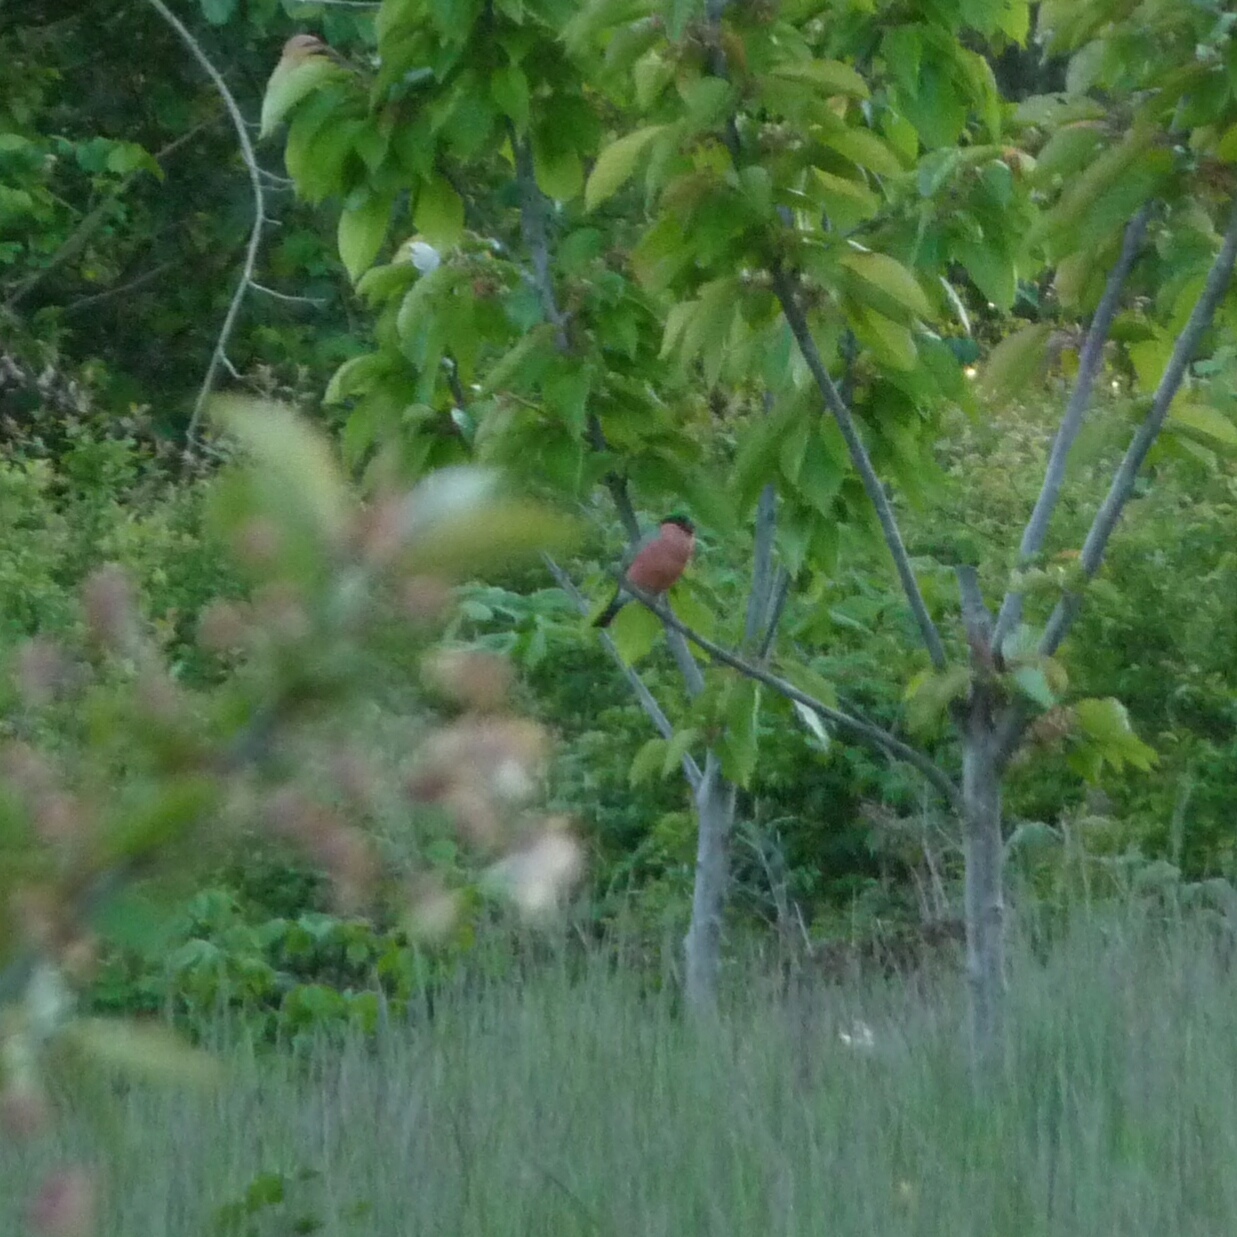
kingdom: Animalia
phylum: Chordata
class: Aves
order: Passeriformes
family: Fringillidae
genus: Pyrrhula
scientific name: Pyrrhula pyrrhula
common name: Eurasian bullfinch
